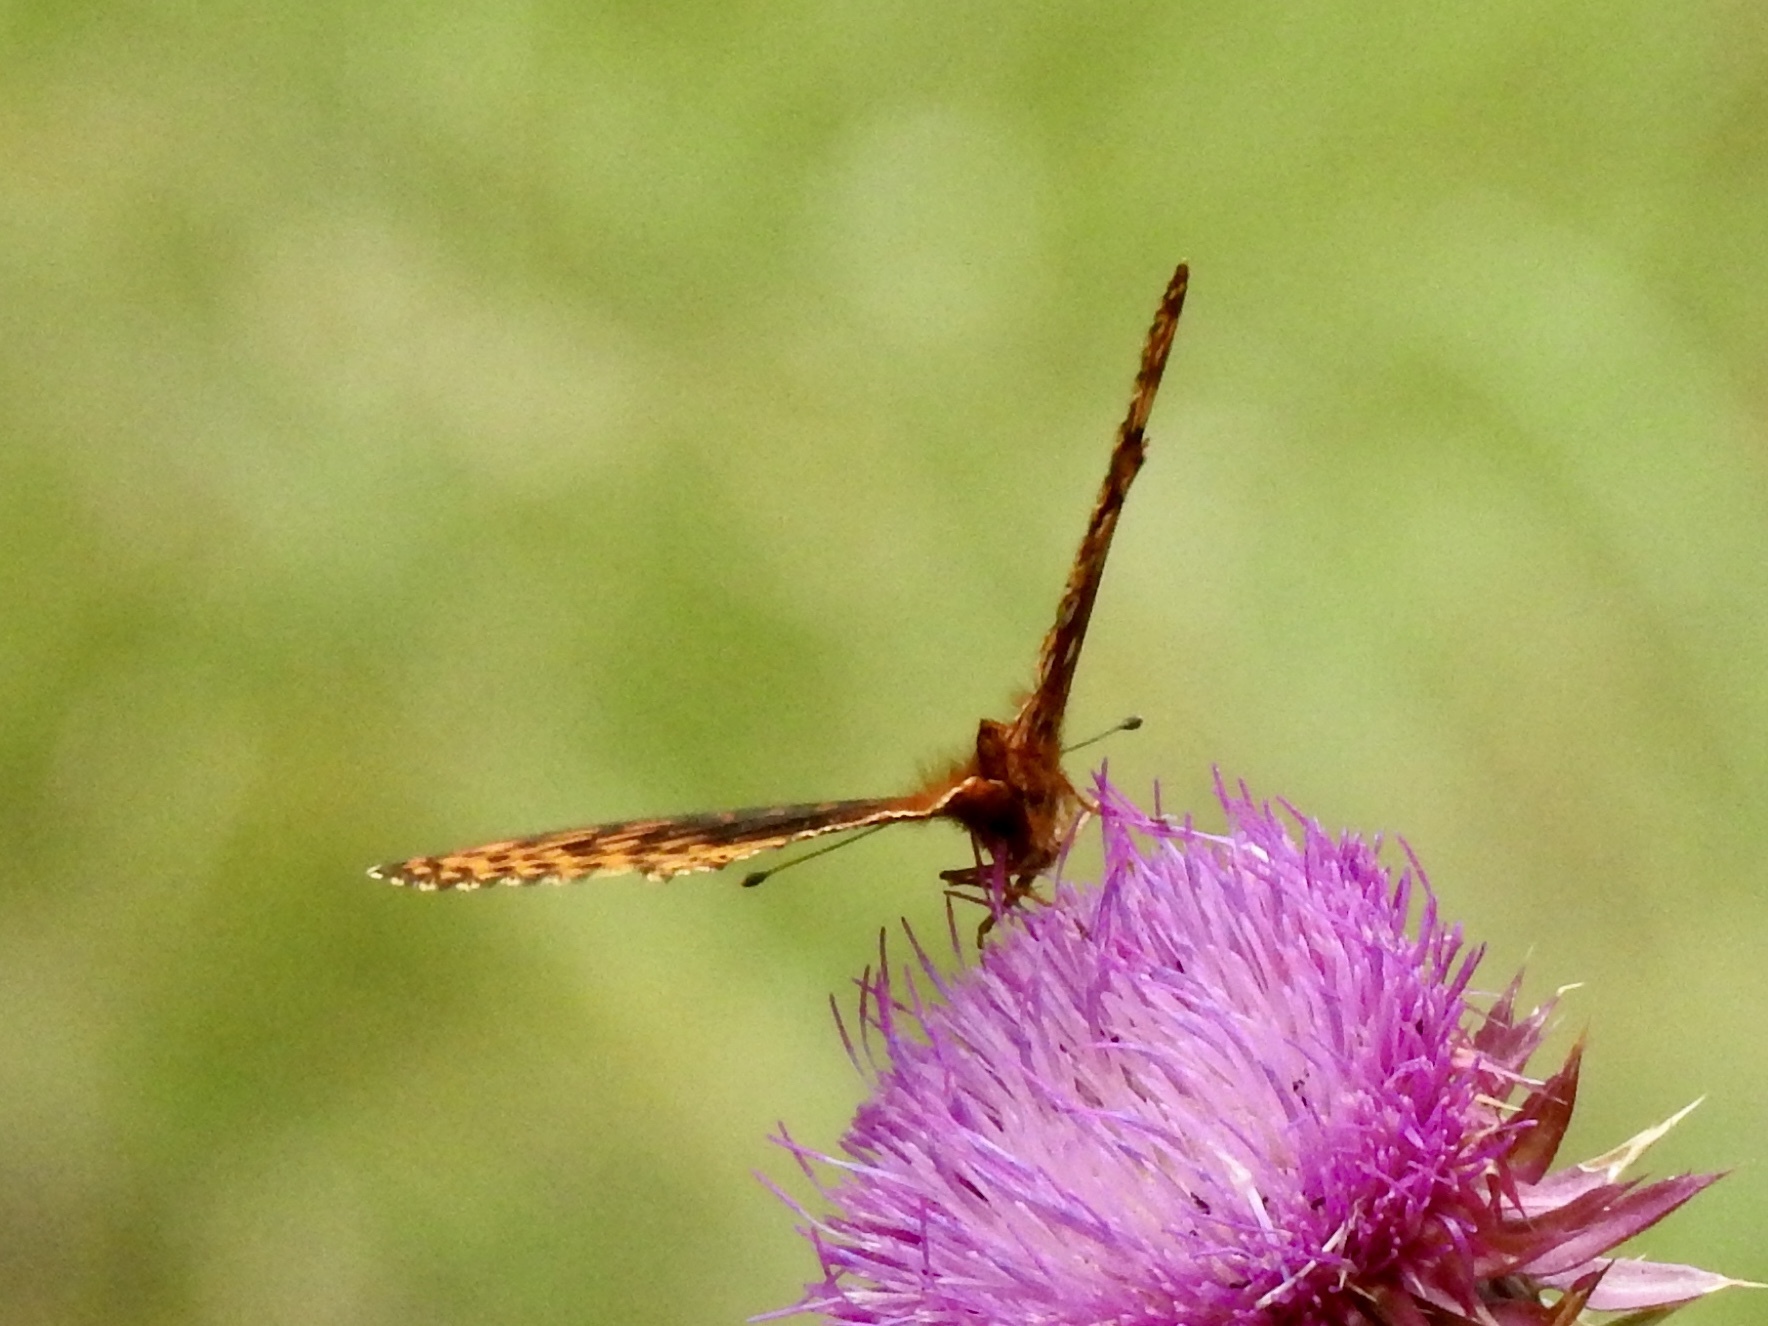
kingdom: Animalia
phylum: Arthropoda
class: Insecta
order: Lepidoptera
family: Nymphalidae
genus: Speyeria
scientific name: Speyeria atlantis
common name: Atlantis fritillary
